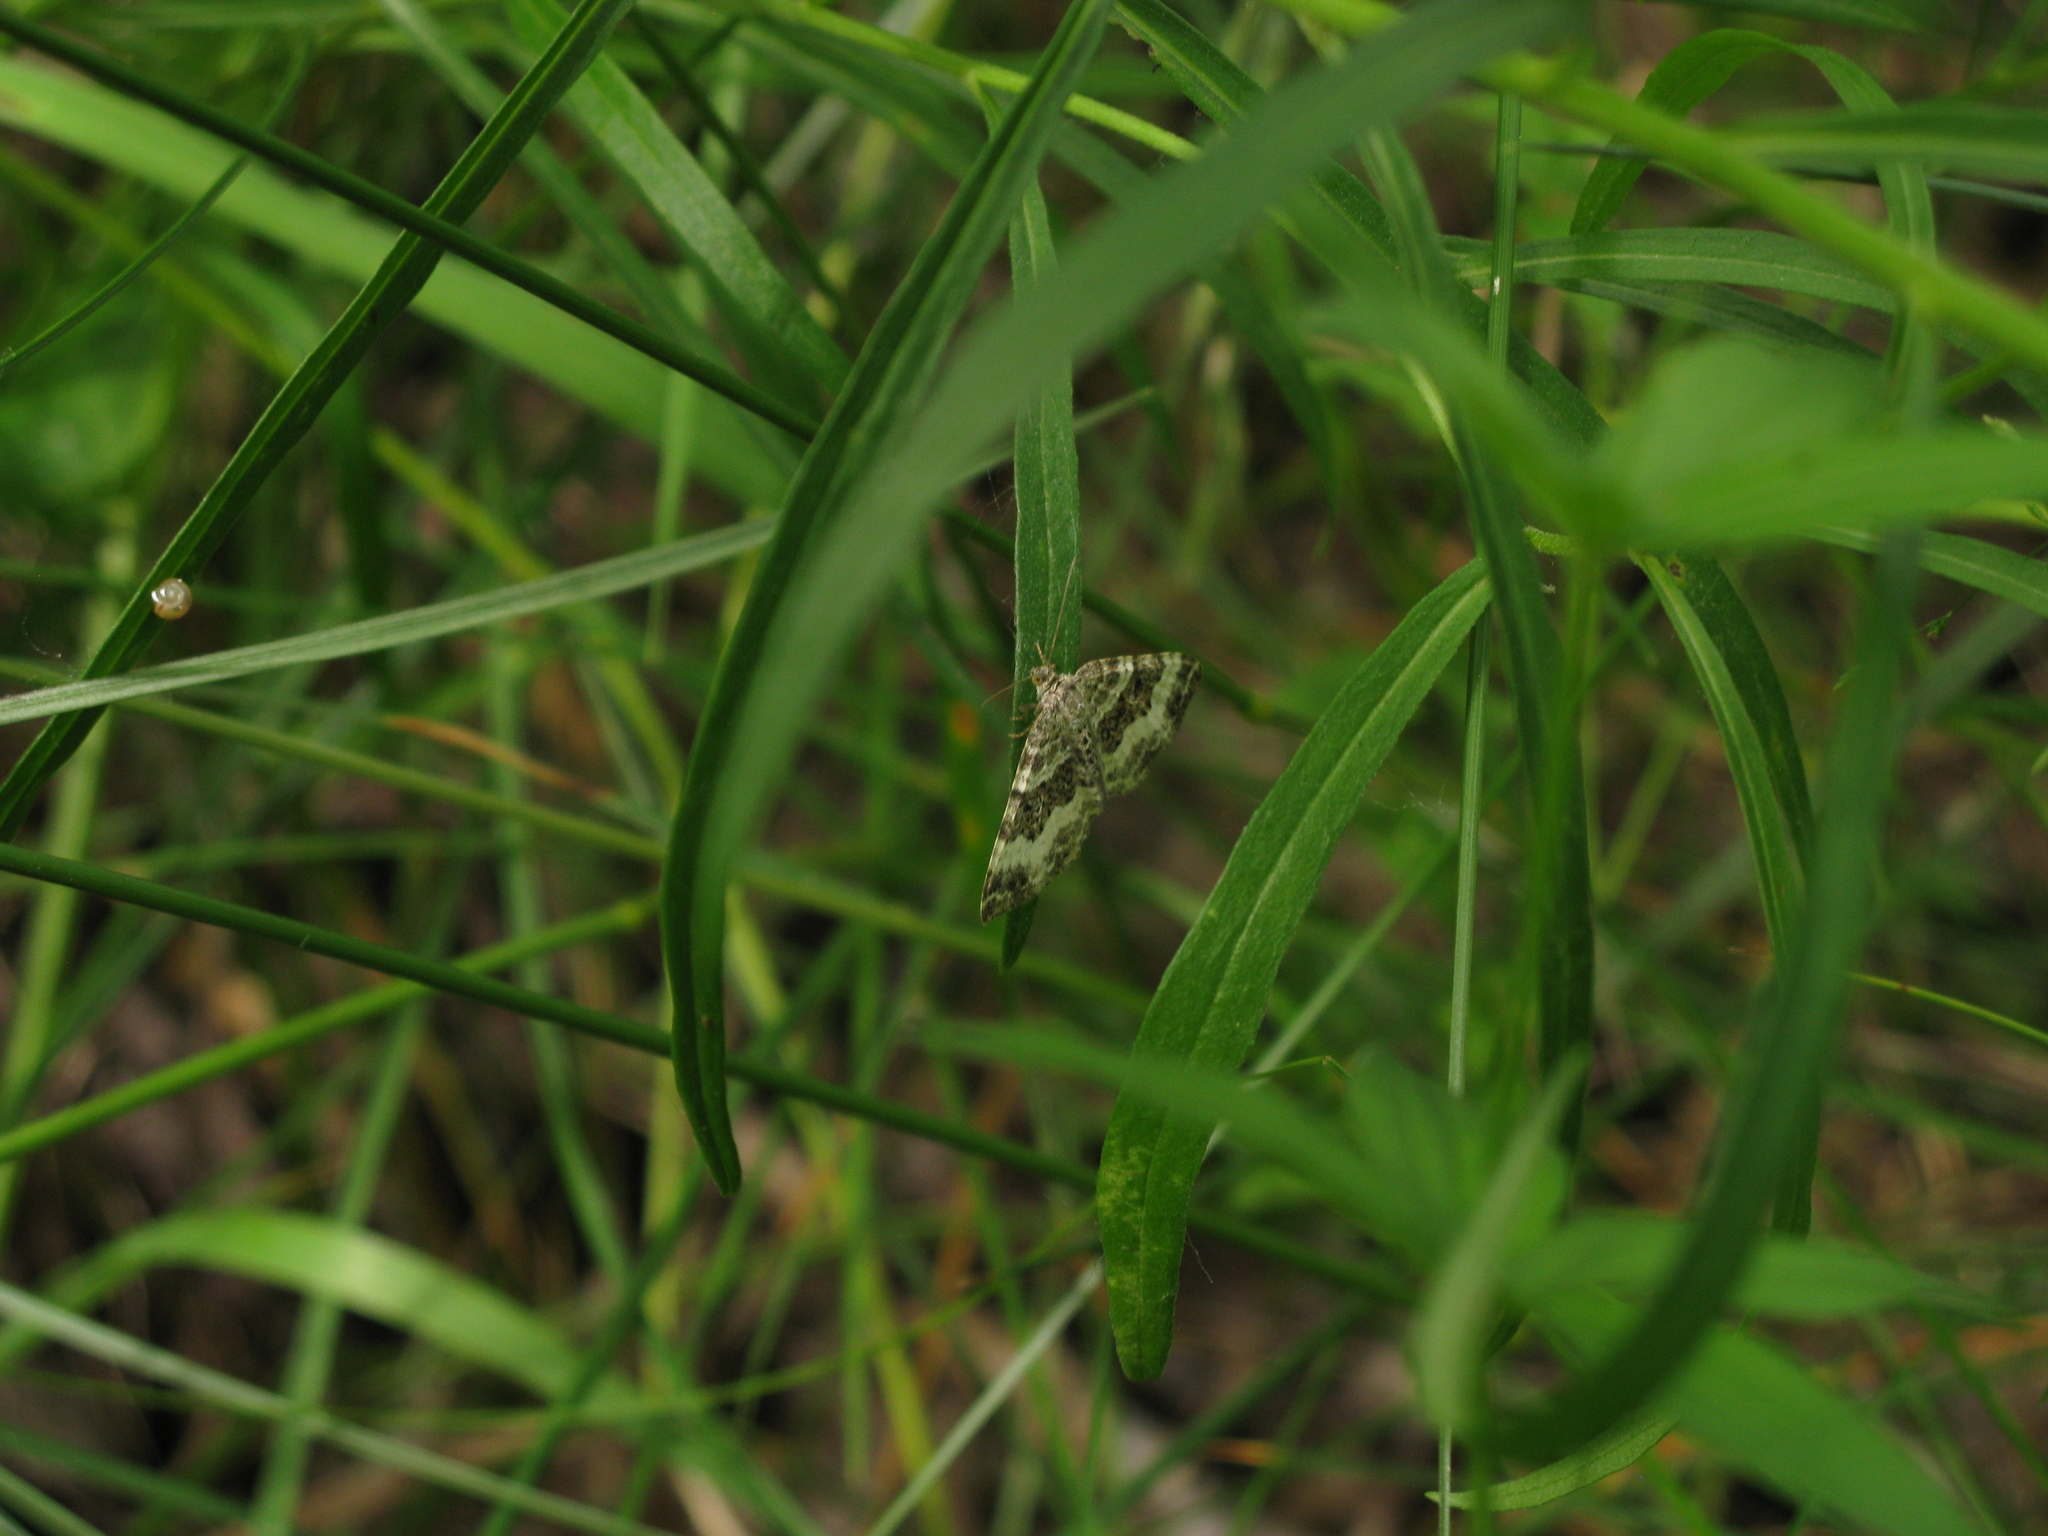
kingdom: Animalia
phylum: Arthropoda
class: Insecta
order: Lepidoptera
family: Geometridae
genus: Epirrhoe
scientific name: Epirrhoe alternata
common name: Common carpet
